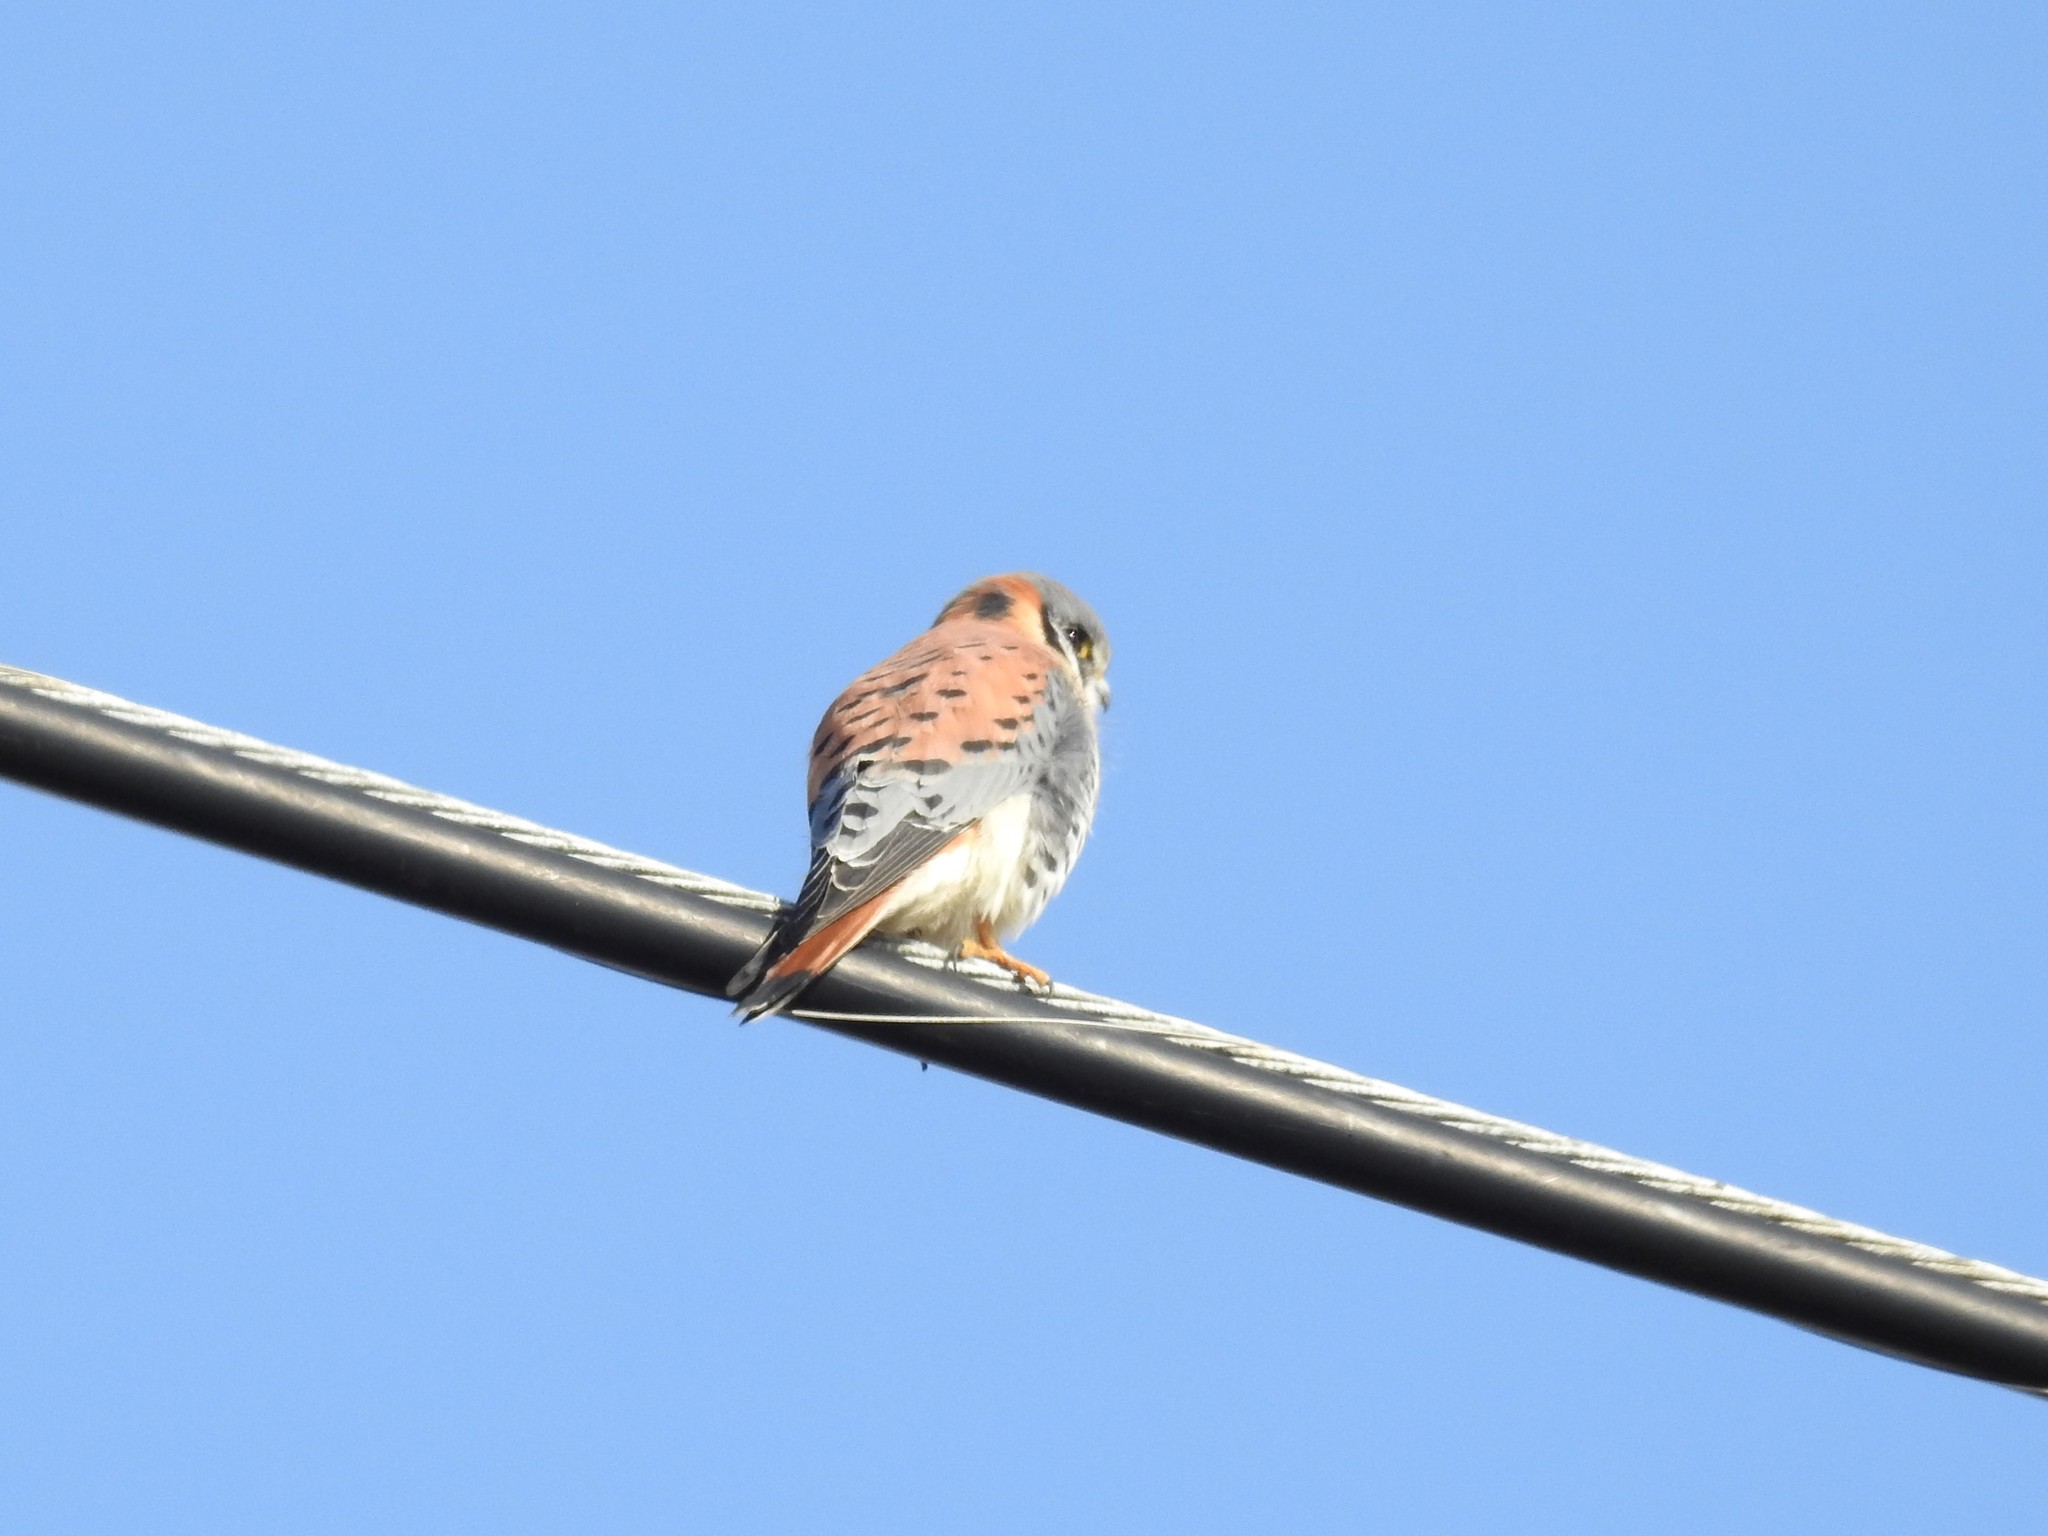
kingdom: Animalia
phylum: Chordata
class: Aves
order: Falconiformes
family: Falconidae
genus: Falco
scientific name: Falco sparverius
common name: American kestrel
